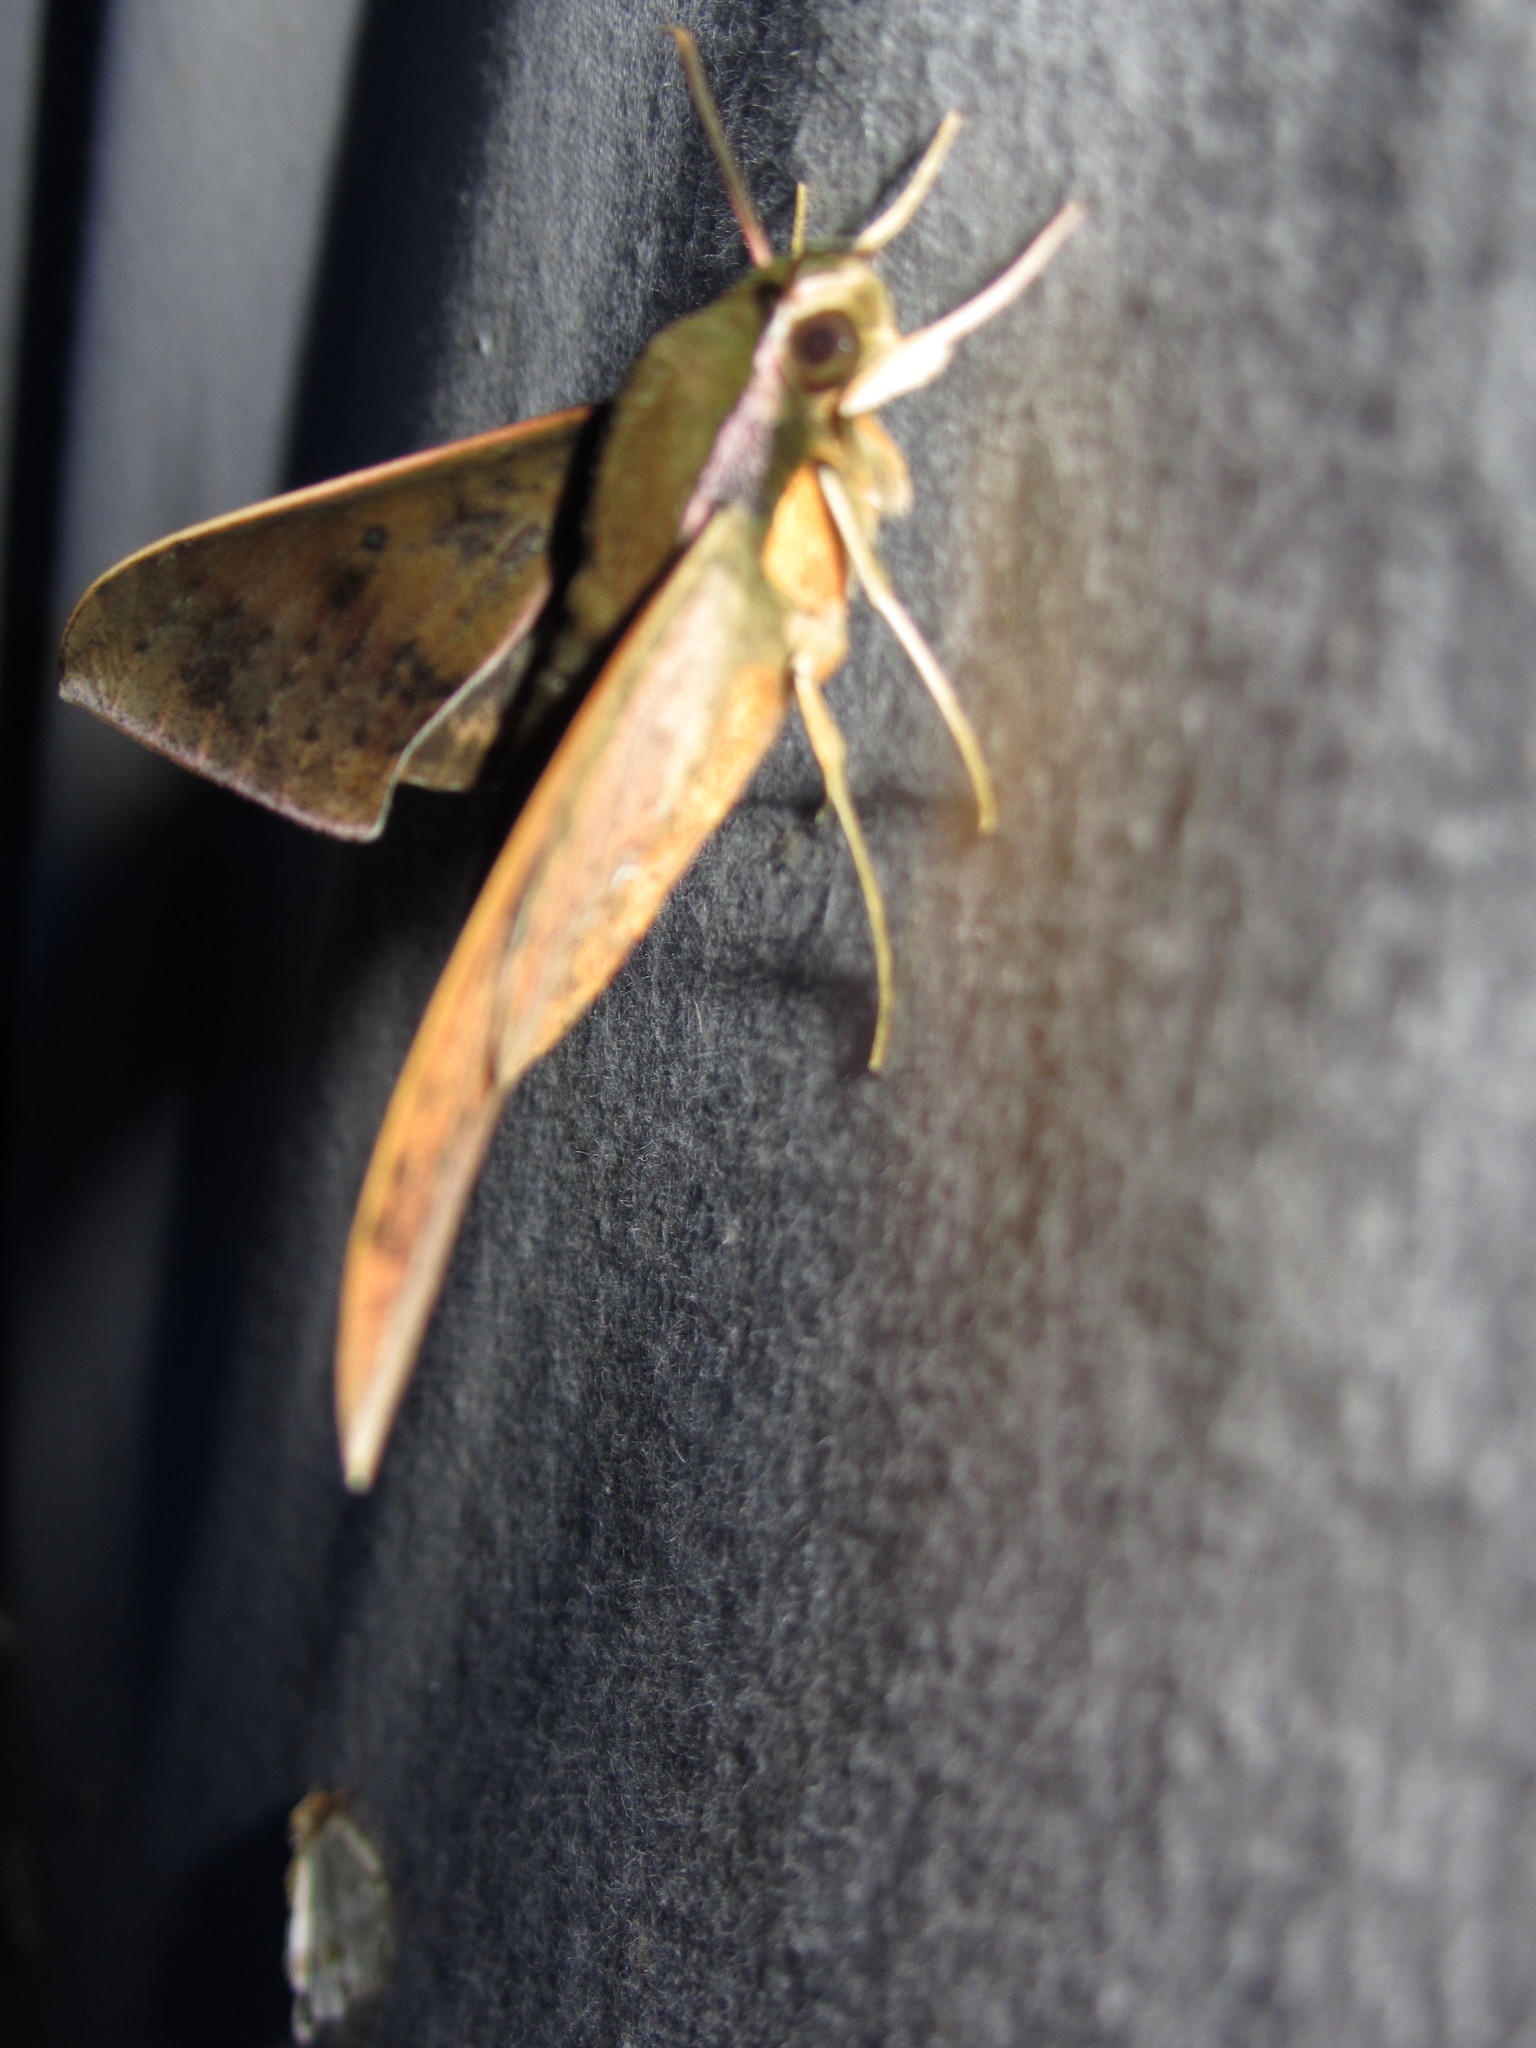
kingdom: Animalia
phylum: Arthropoda
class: Insecta
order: Lepidoptera
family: Sphingidae
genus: Rhagastis
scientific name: Rhagastis confusa
